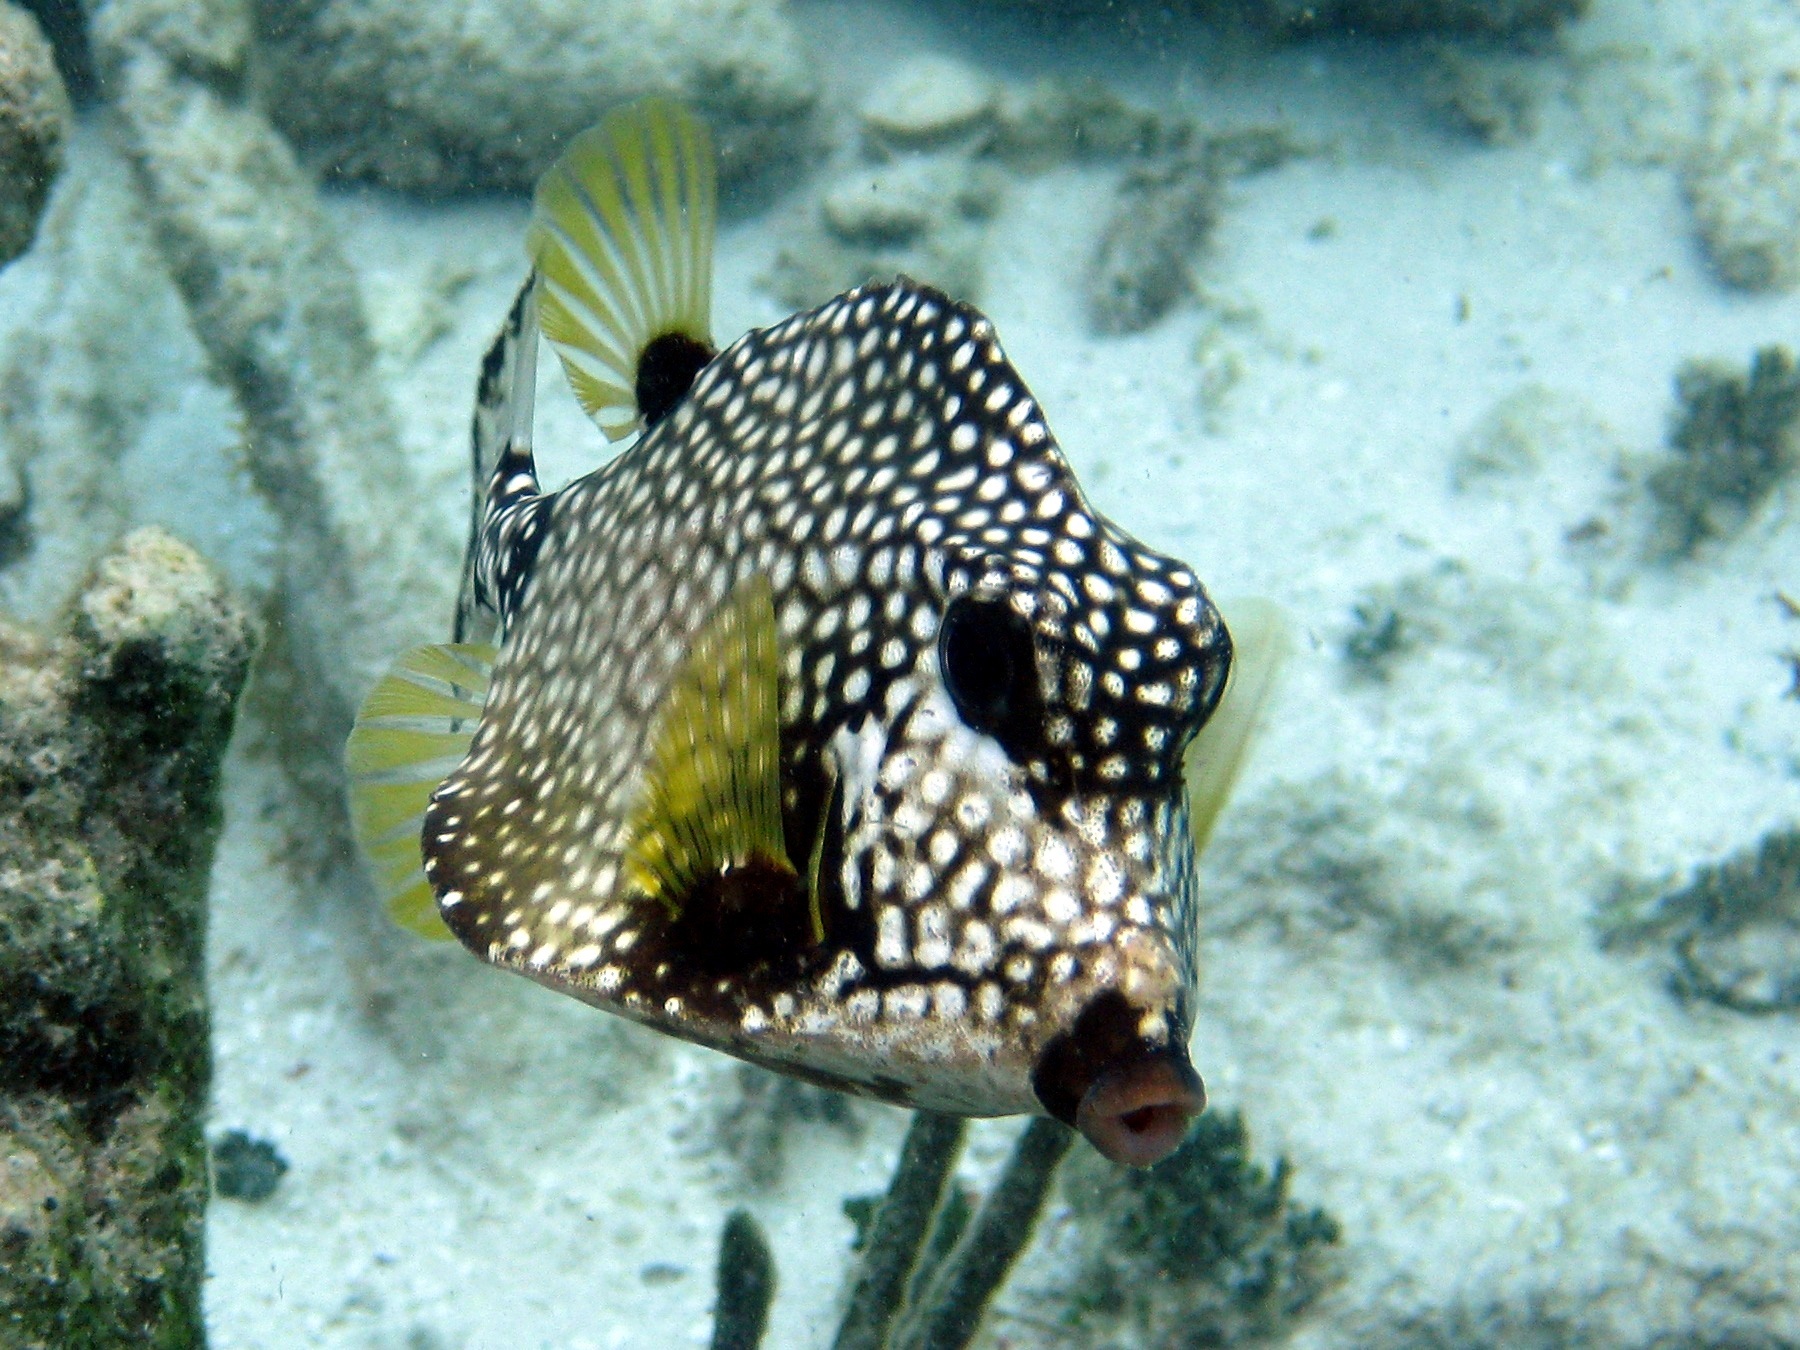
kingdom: Animalia
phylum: Chordata
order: Tetraodontiformes
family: Ostraciidae
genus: Lactophrys
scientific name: Lactophrys triqueter
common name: Smooth trunkfish
